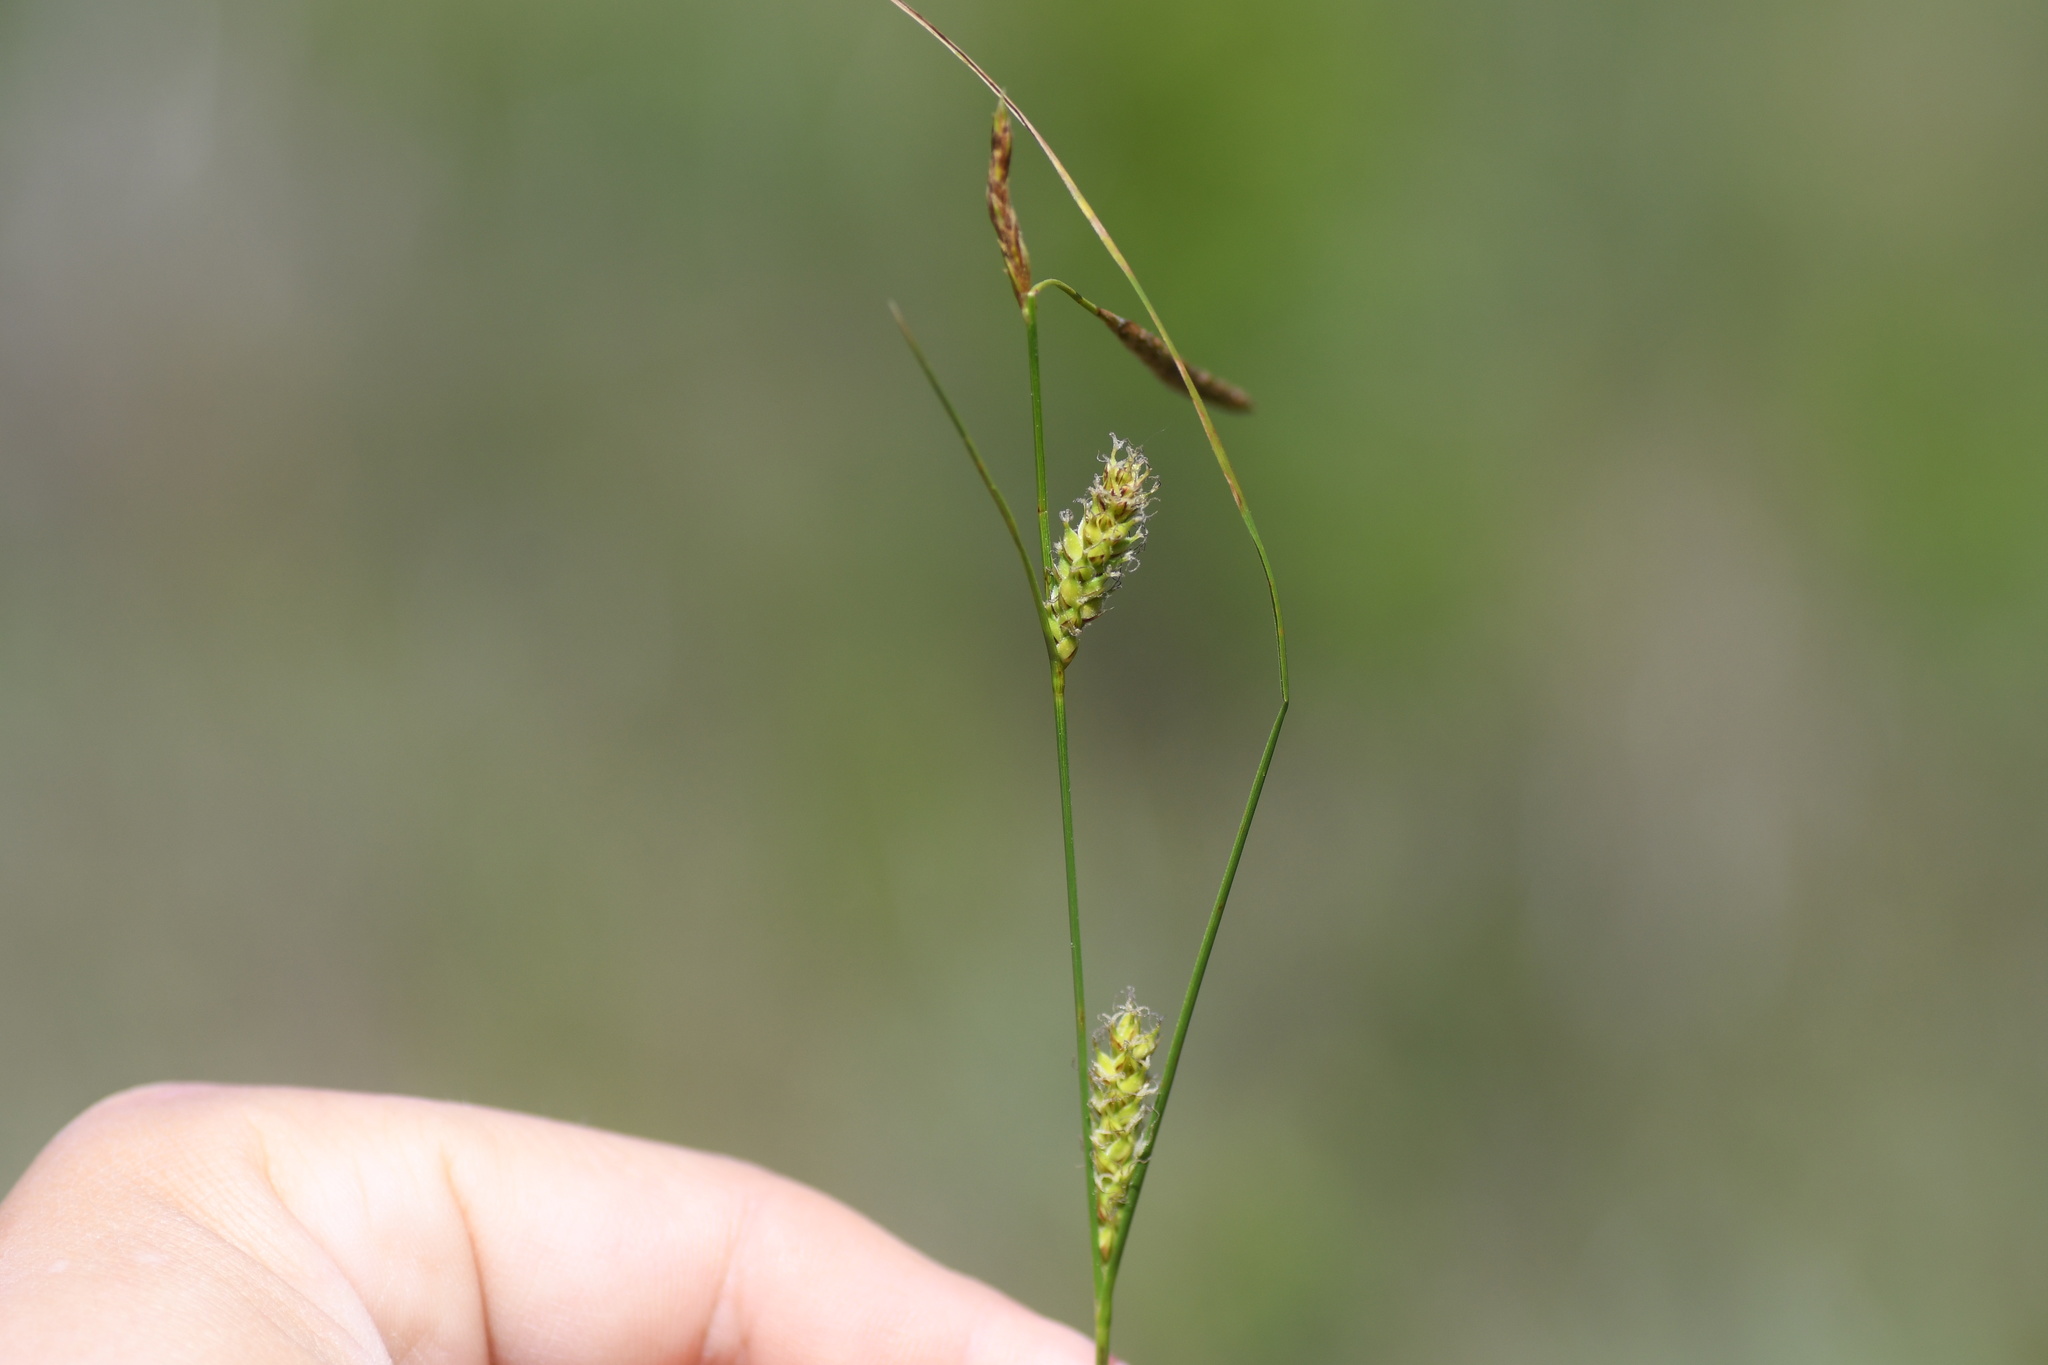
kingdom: Plantae
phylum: Tracheophyta
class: Liliopsida
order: Poales
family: Cyperaceae
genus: Carex
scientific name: Carex lasiocarpa
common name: Slender sedge
